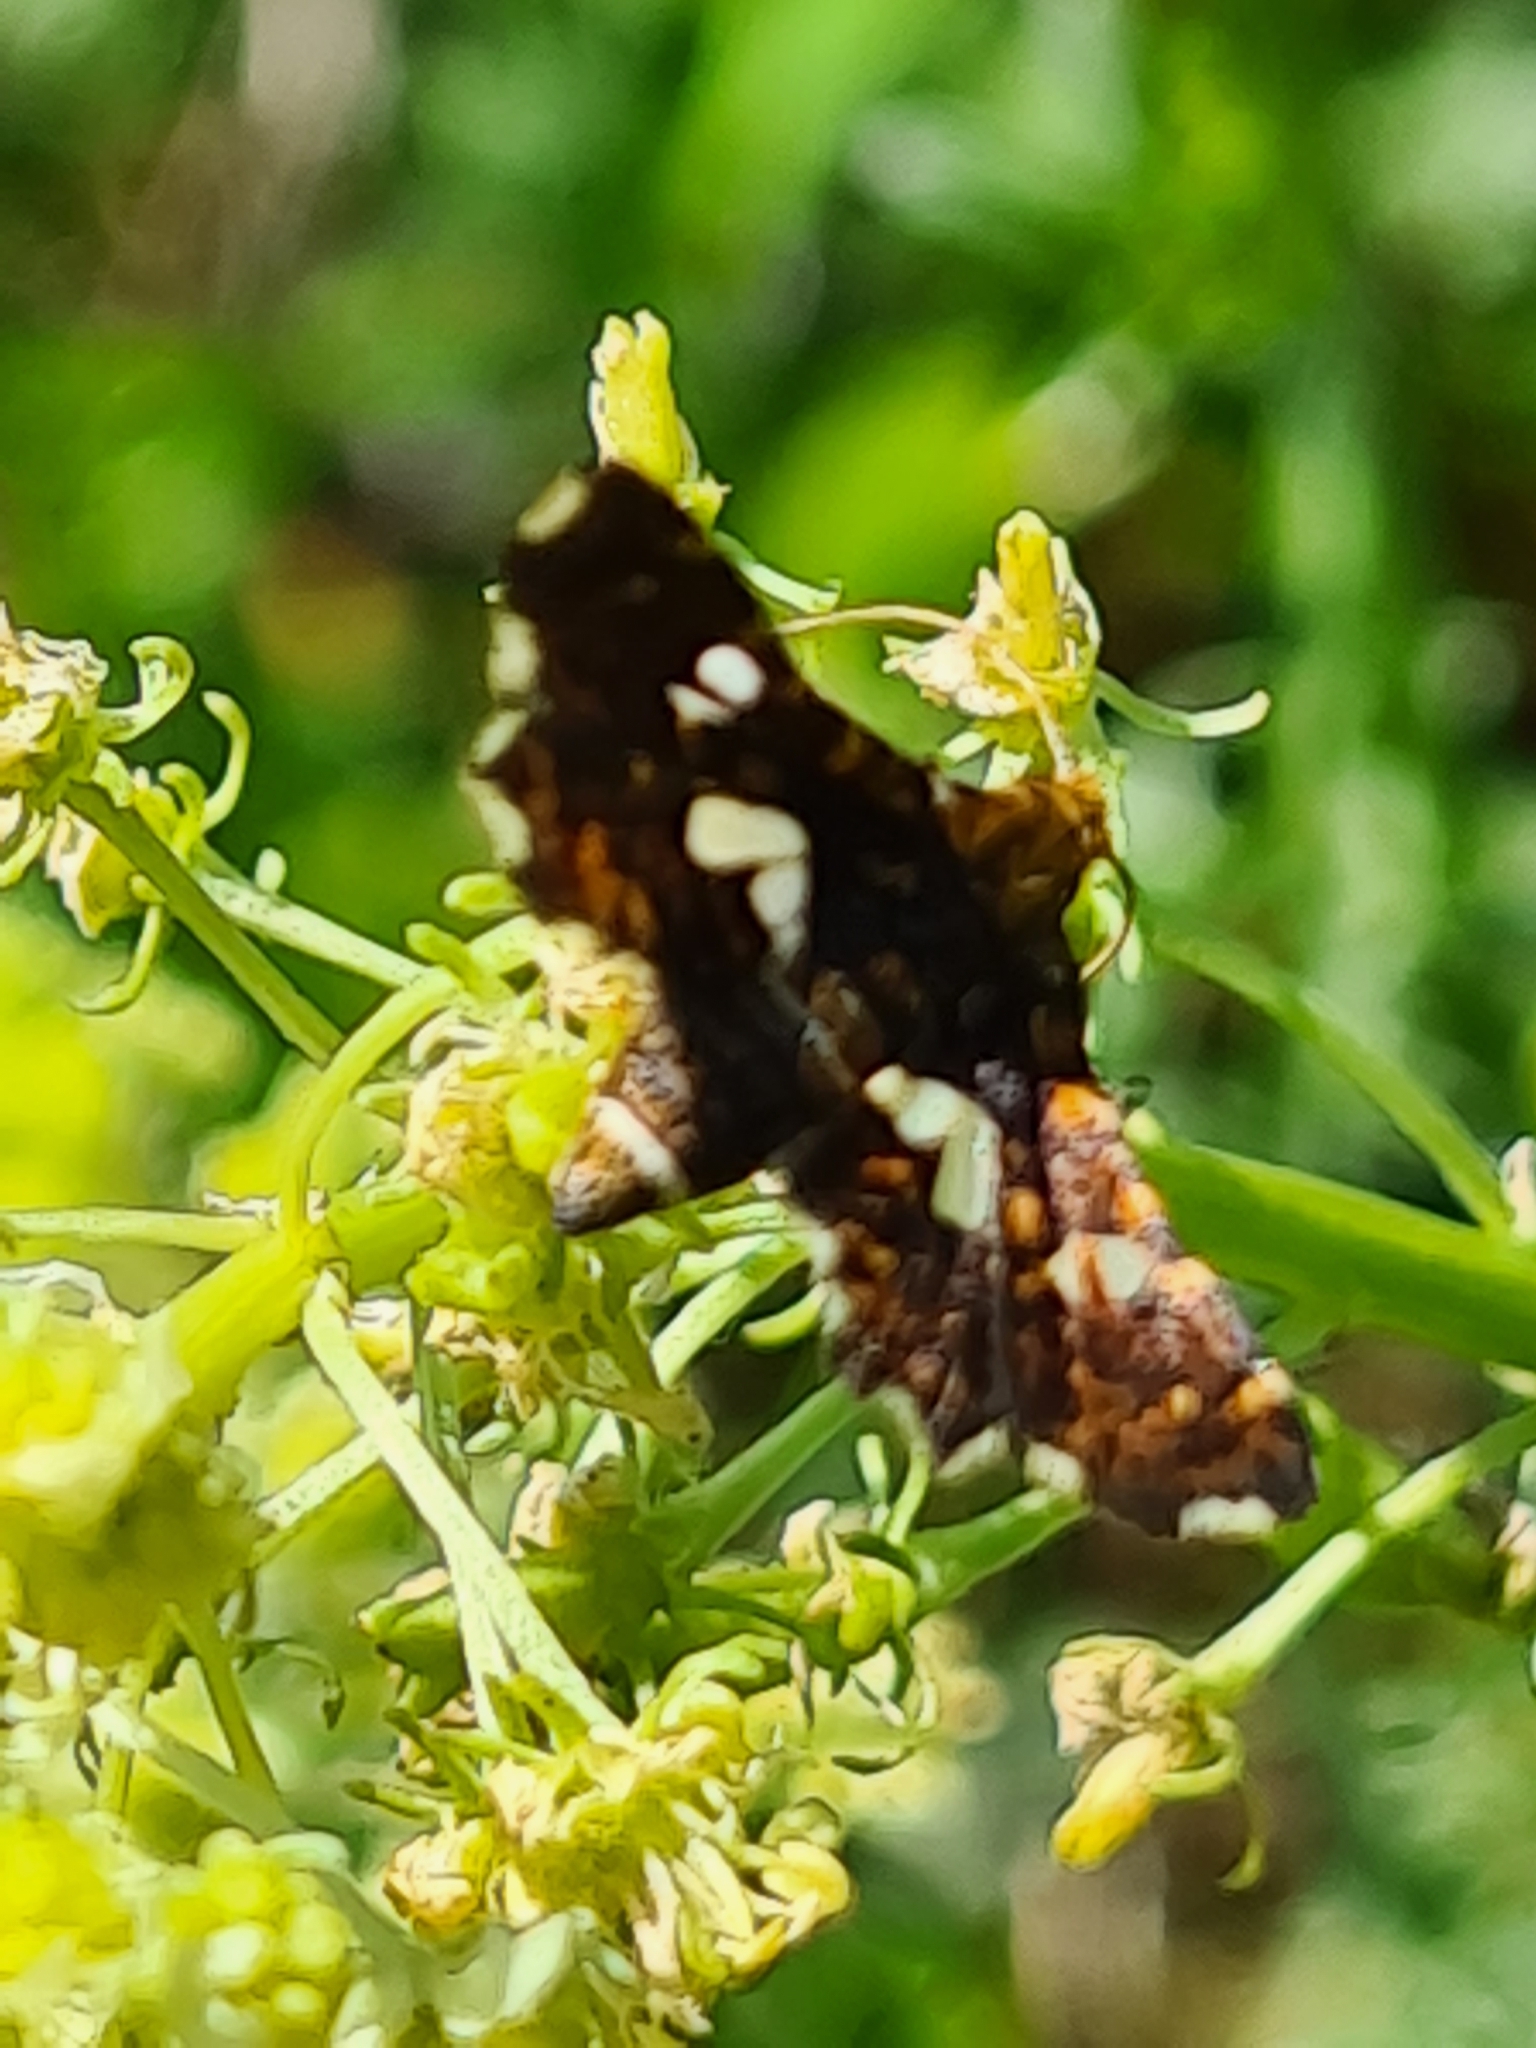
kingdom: Animalia
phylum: Arthropoda
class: Insecta
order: Lepidoptera
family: Thyrididae
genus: Thyris
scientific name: Thyris fenestrella
